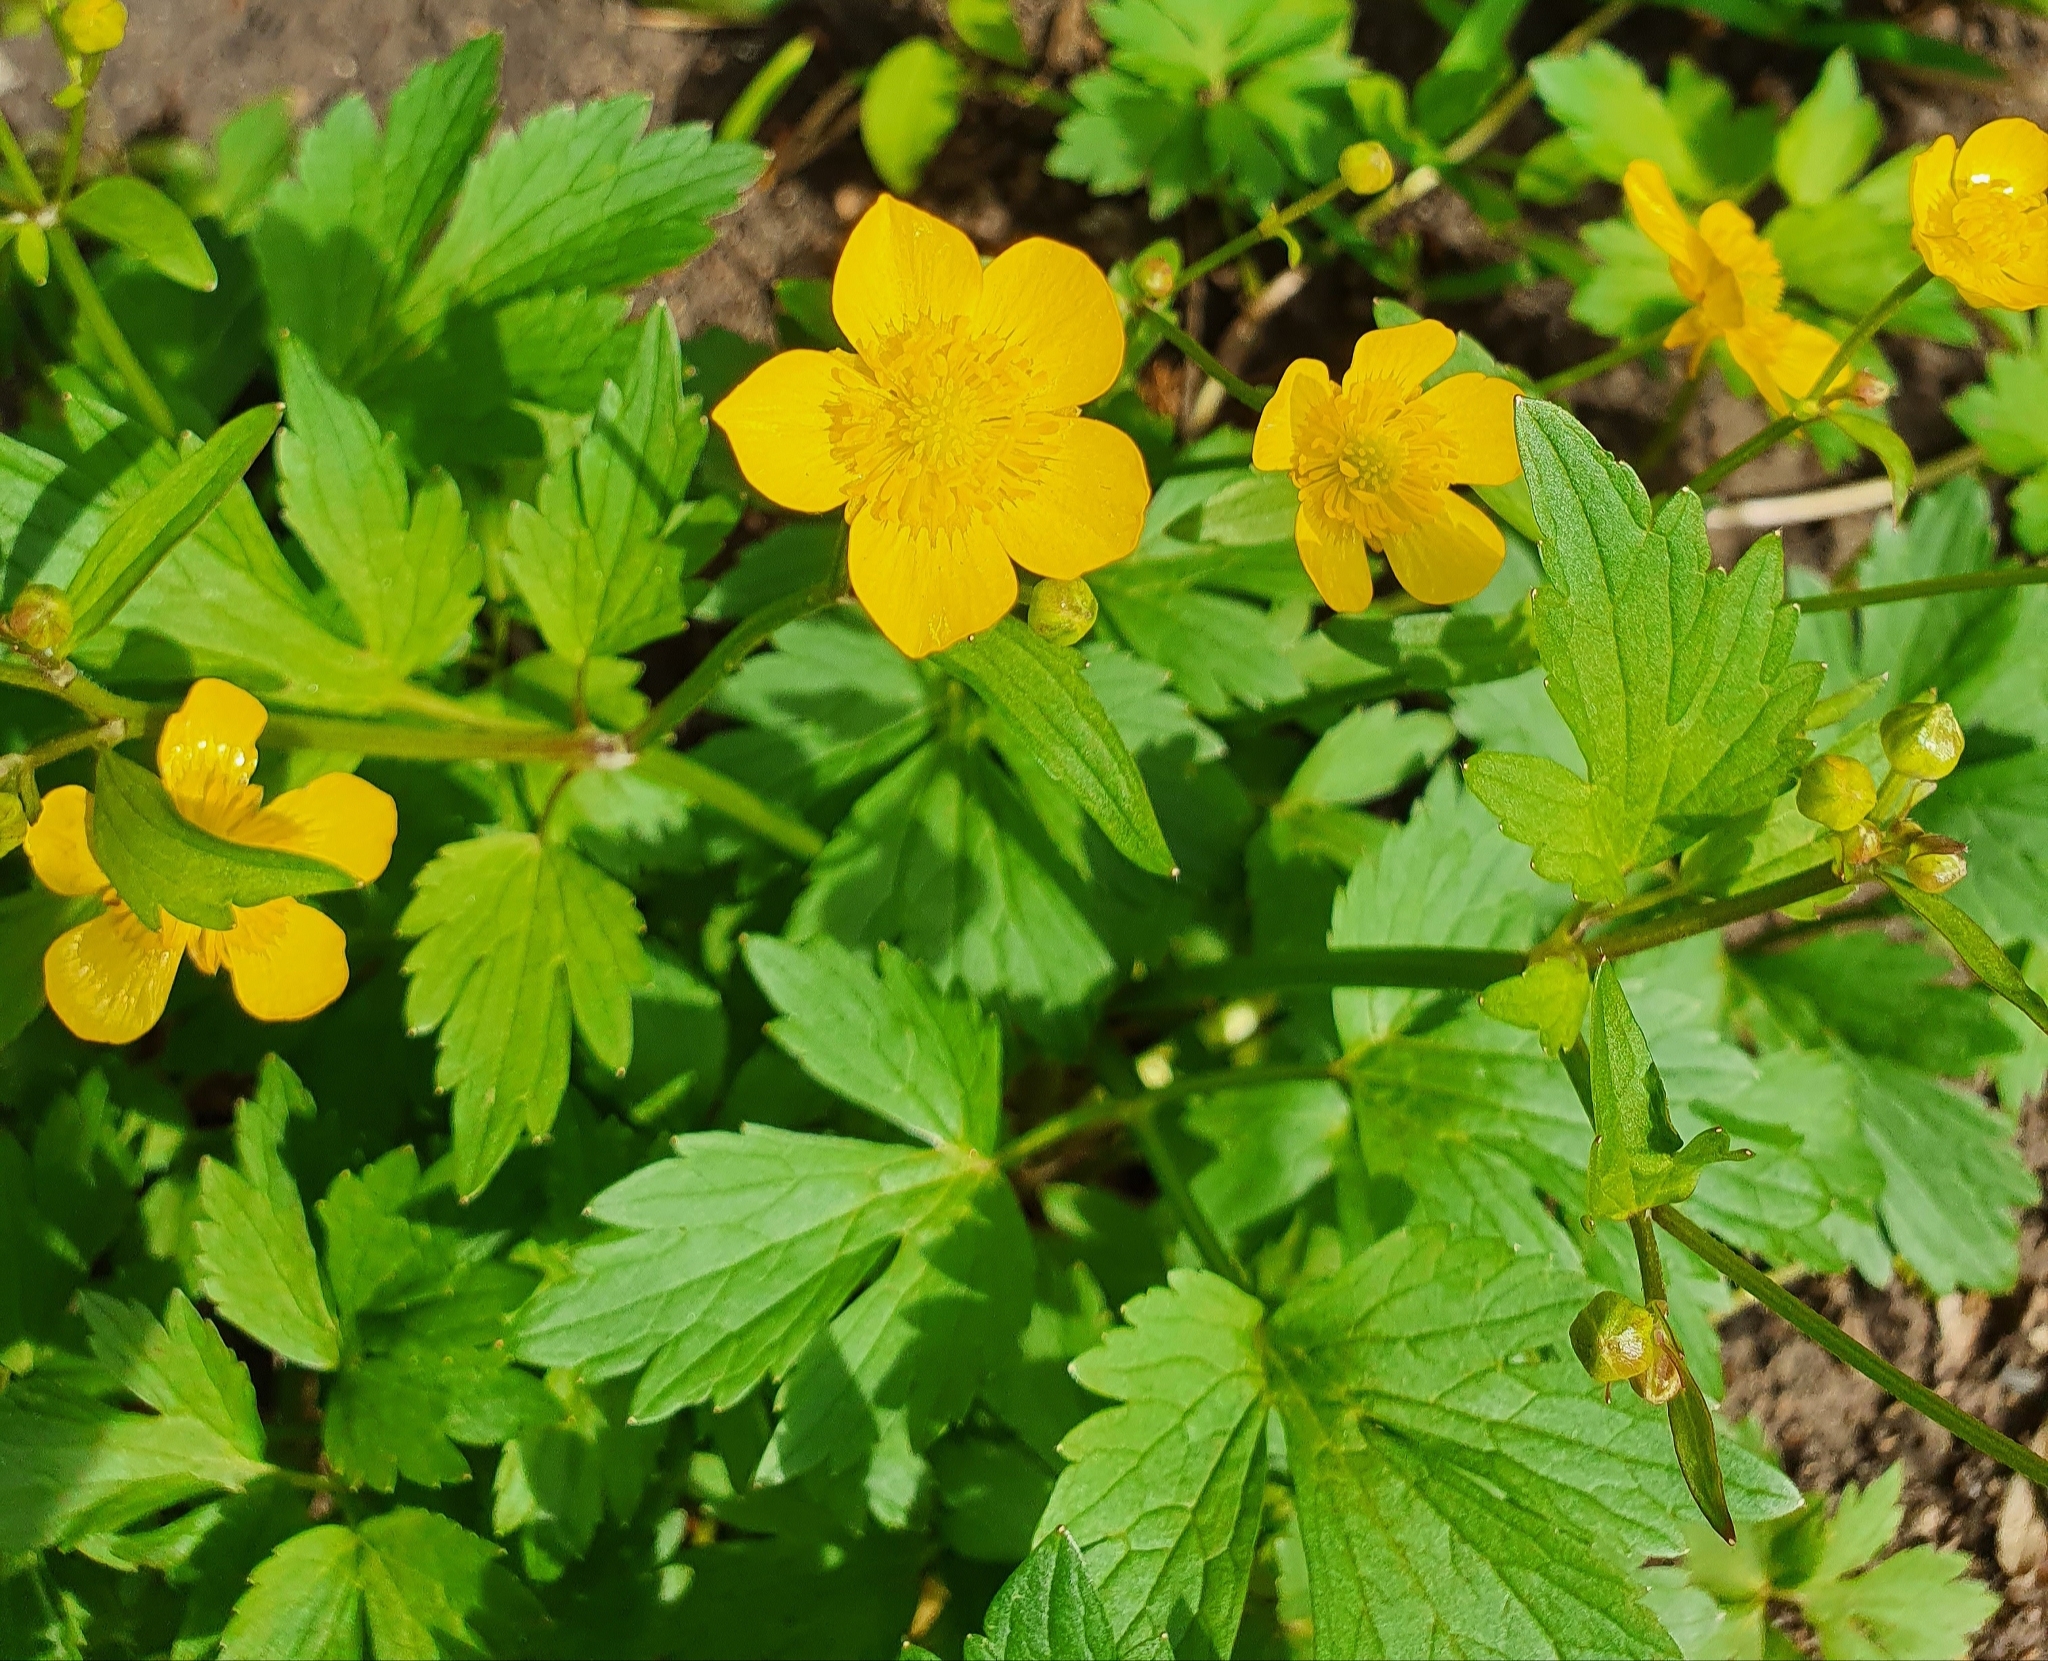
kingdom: Plantae
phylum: Tracheophyta
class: Magnoliopsida
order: Ranunculales
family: Ranunculaceae
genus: Ranunculus
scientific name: Ranunculus repens
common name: Creeping buttercup
